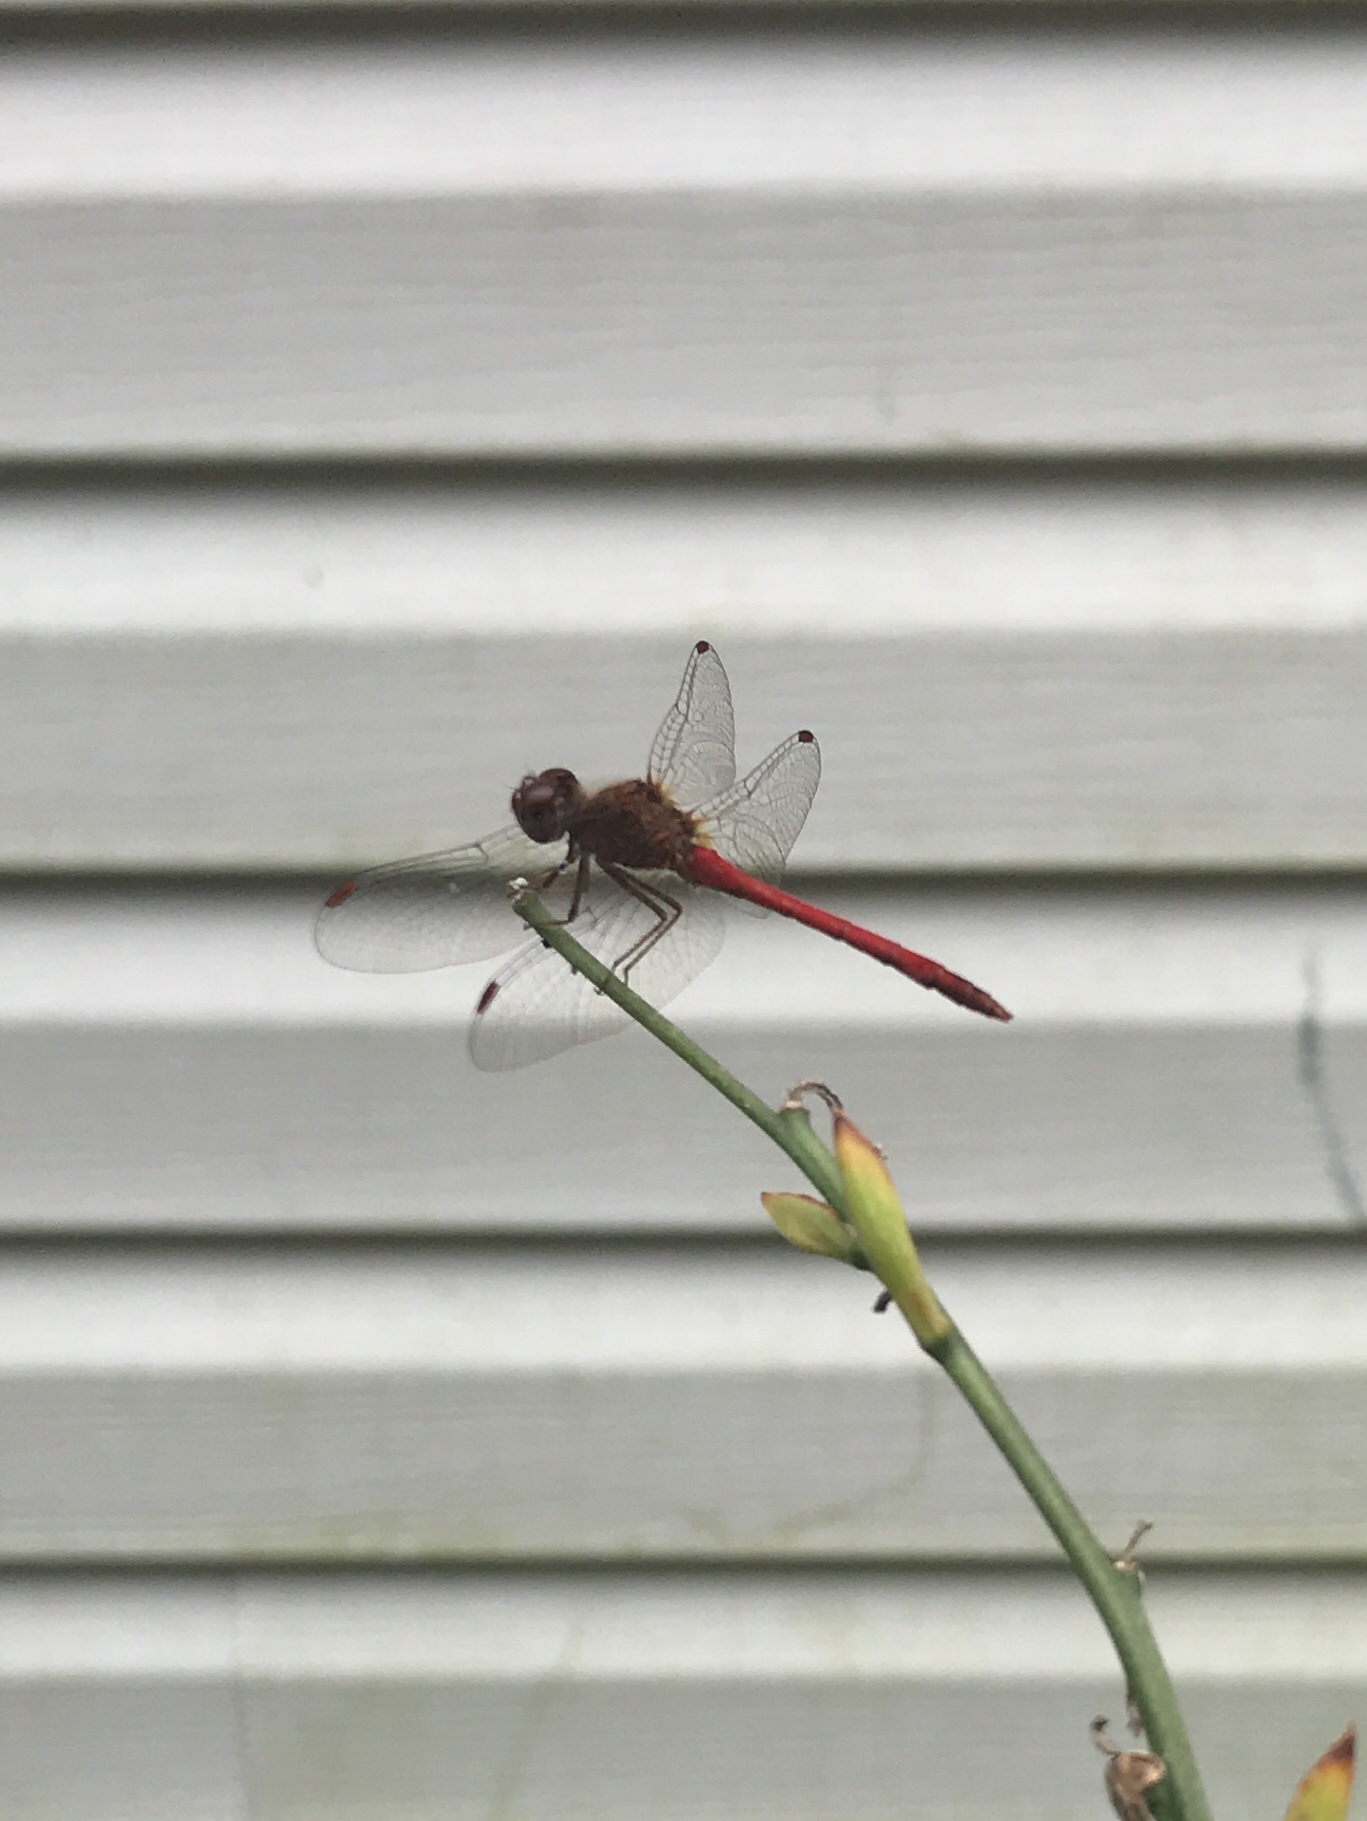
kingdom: Animalia
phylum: Arthropoda
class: Insecta
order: Odonata
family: Libellulidae
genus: Sympetrum
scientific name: Sympetrum vicinum
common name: Autumn meadowhawk
